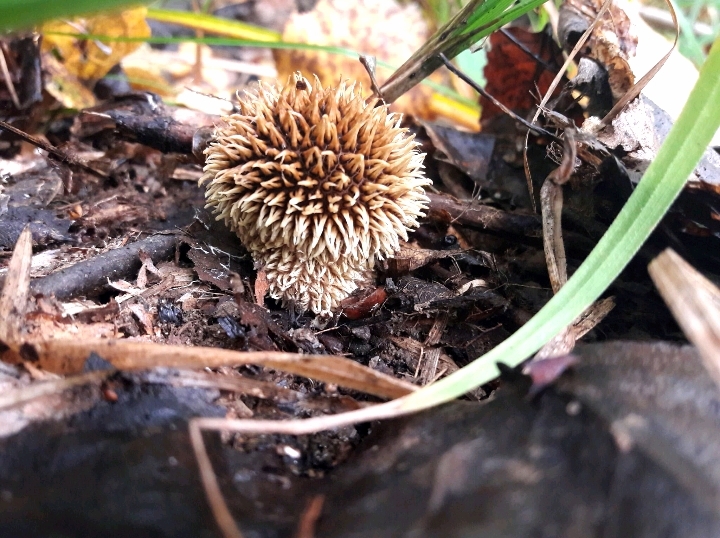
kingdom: Fungi
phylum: Basidiomycota
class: Agaricomycetes
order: Agaricales
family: Lycoperdaceae
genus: Lycoperdon
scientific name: Lycoperdon echinatum
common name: Hedgehog puffball
